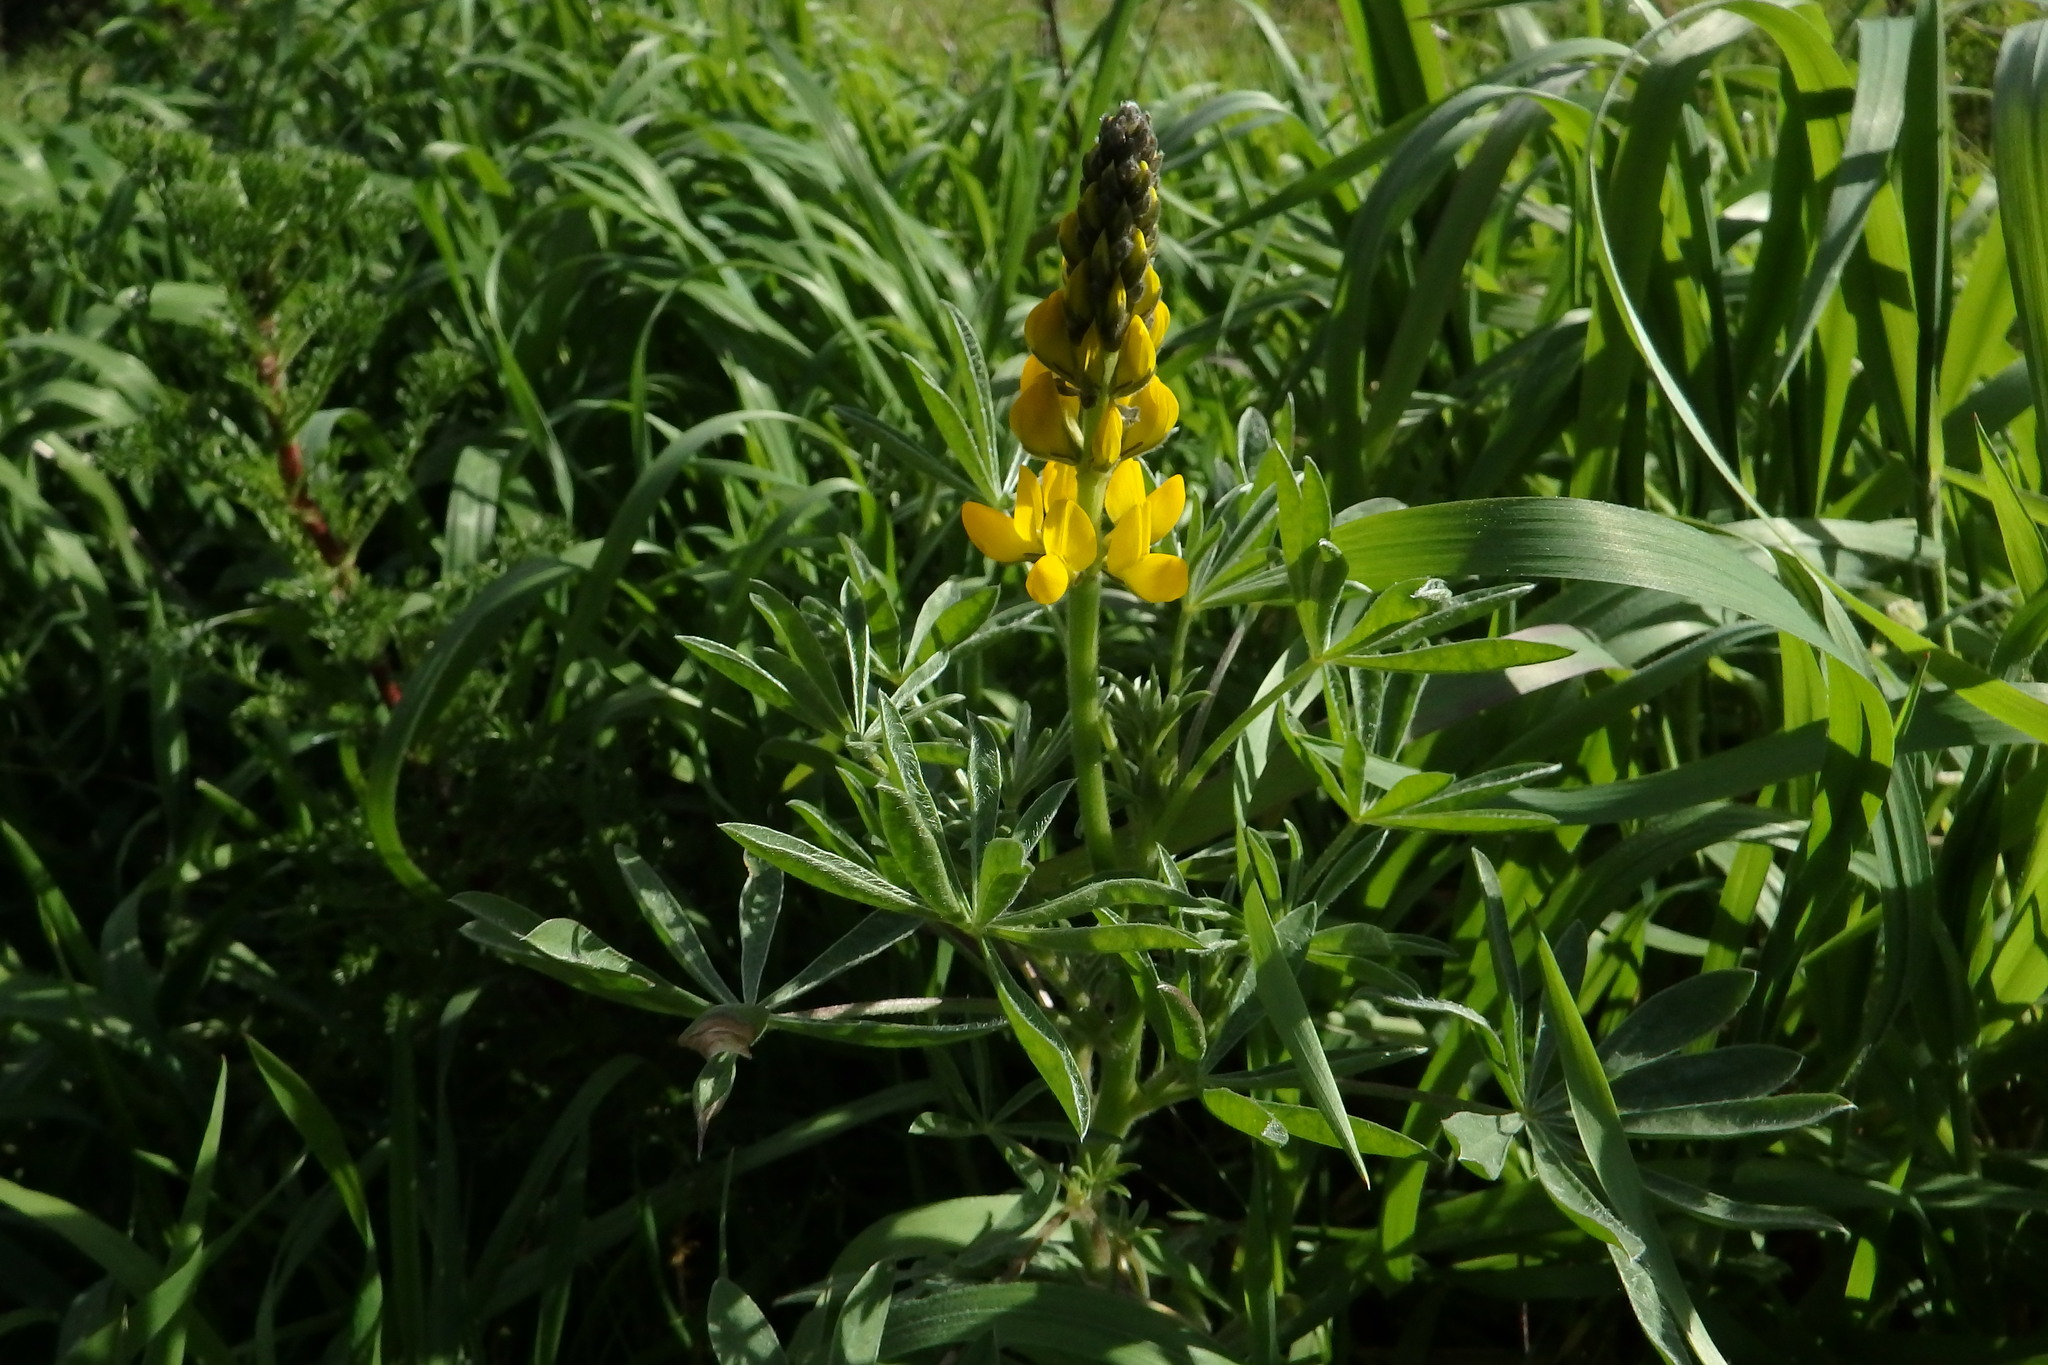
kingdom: Plantae
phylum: Tracheophyta
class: Magnoliopsida
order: Fabales
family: Fabaceae
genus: Lupinus
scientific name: Lupinus luteus
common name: European yellow lupine
